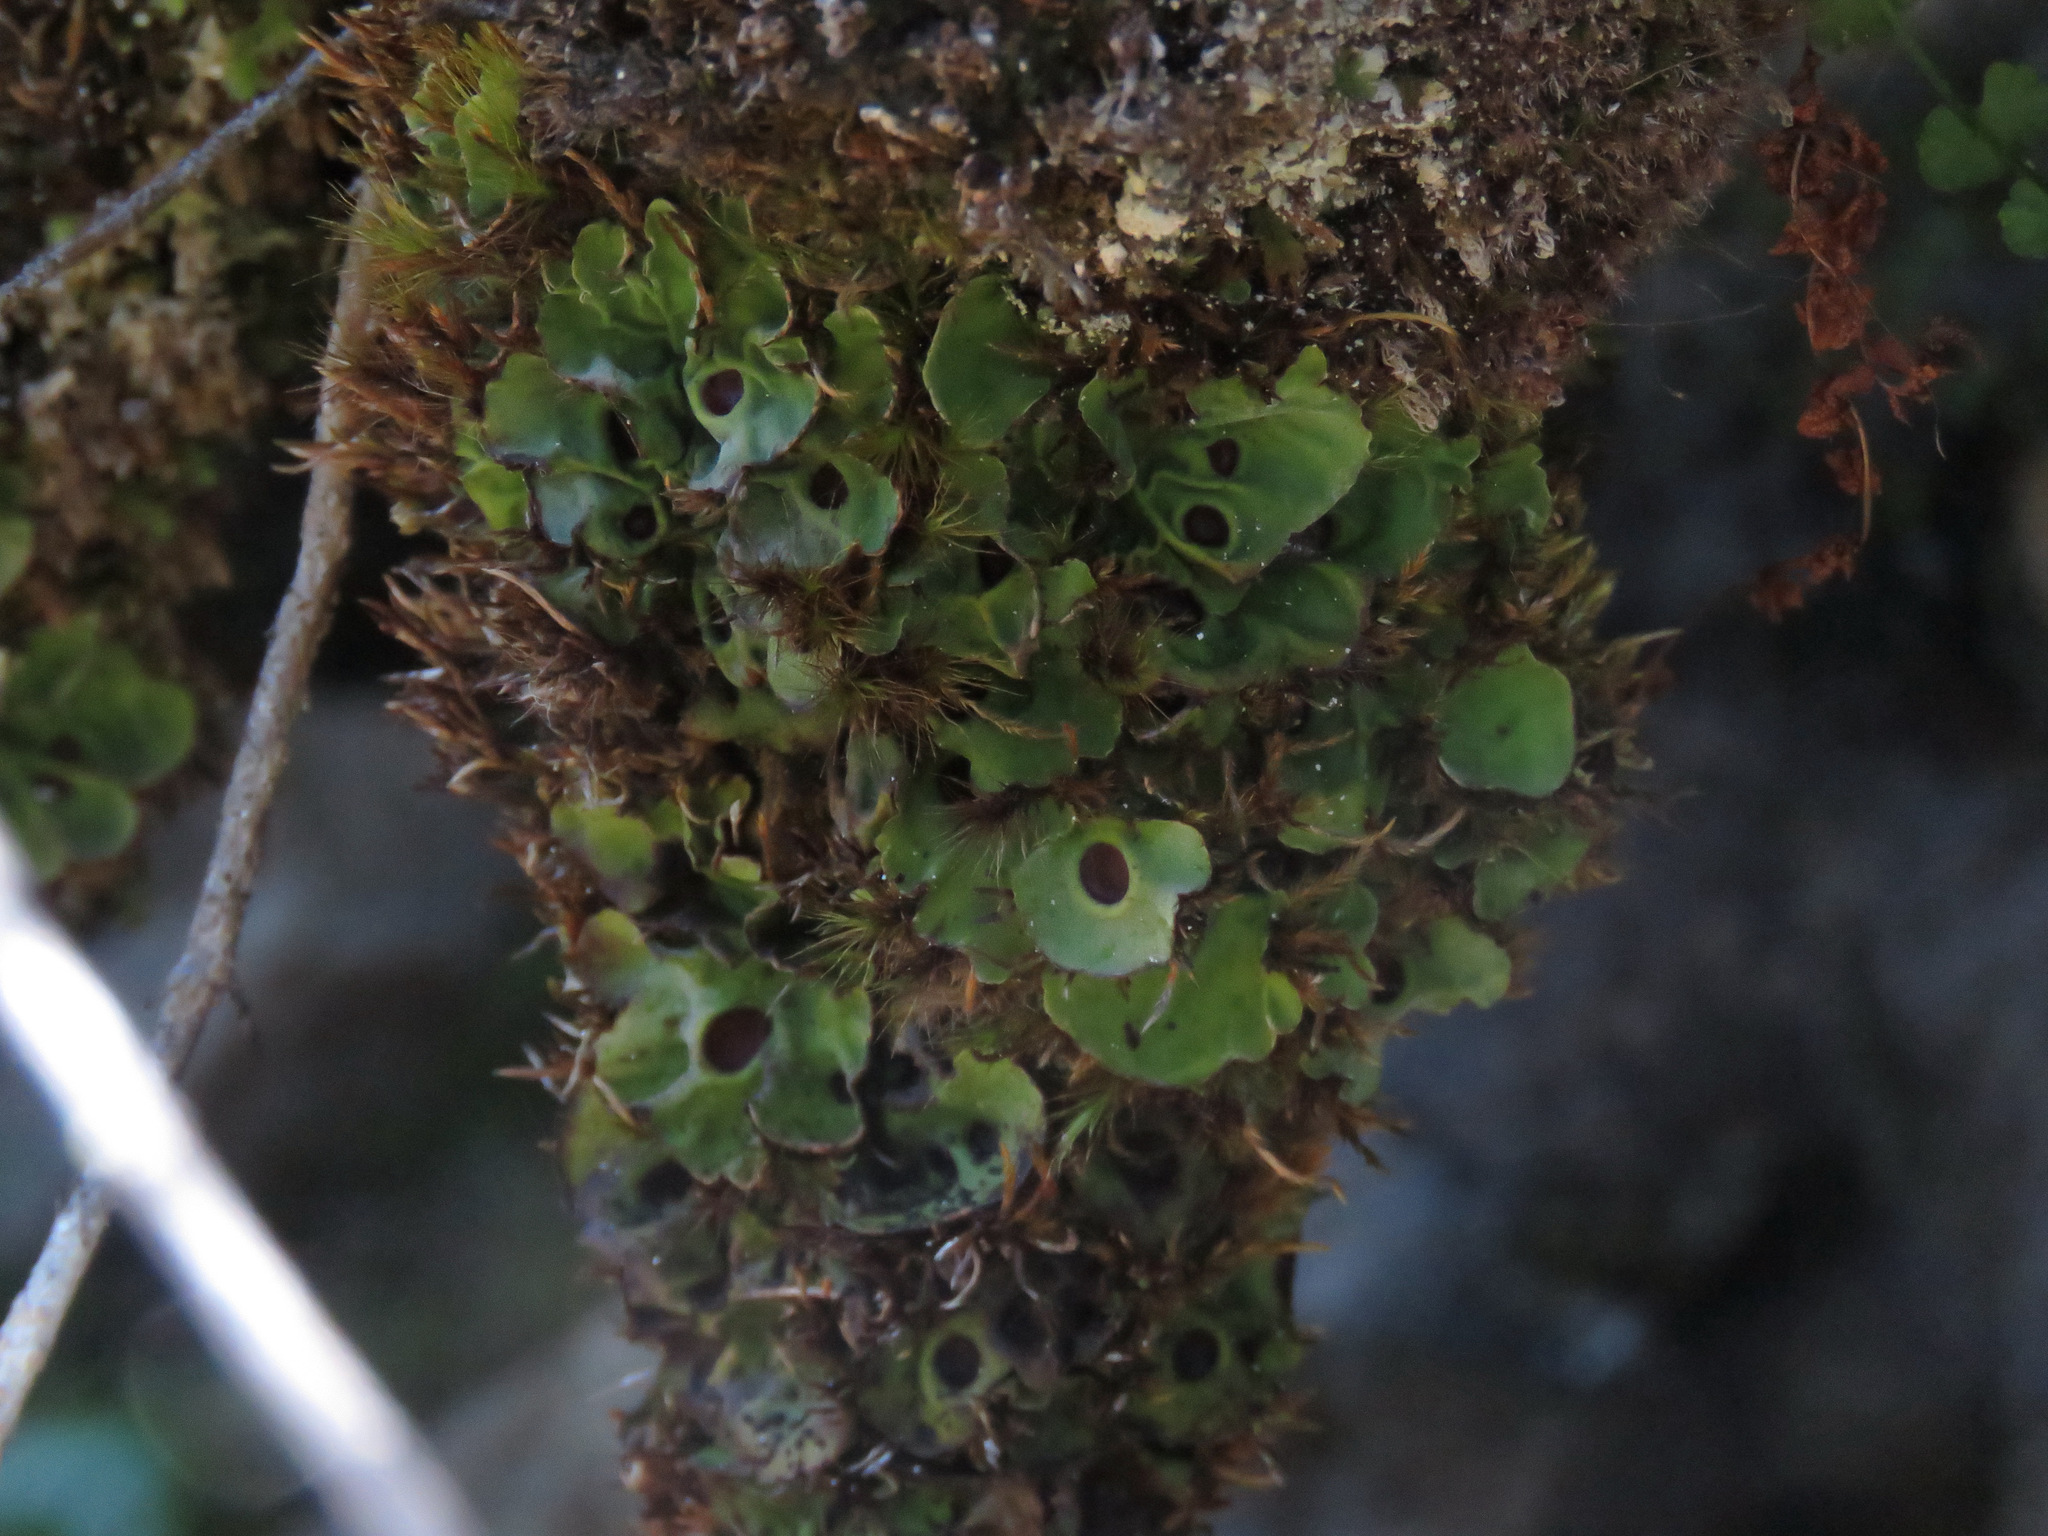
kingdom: Fungi
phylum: Ascomycota
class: Lecanoromycetes
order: Peltigerales
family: Peltigeraceae
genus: Solorina
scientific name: Solorina saccata
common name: Common chocolate chip lichen
